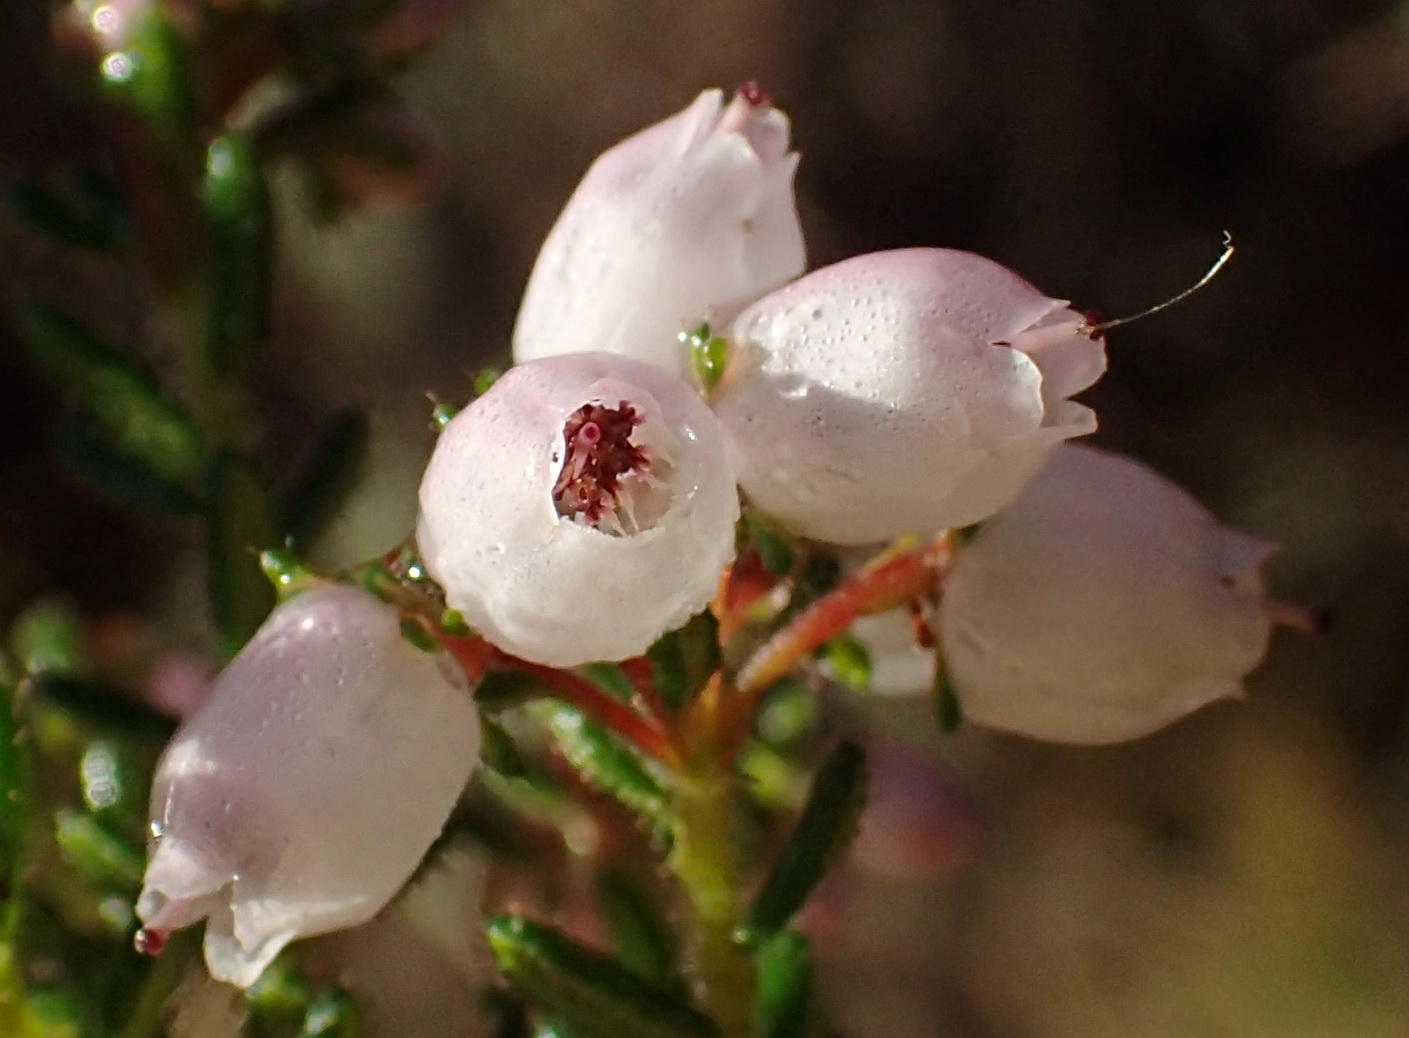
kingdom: Plantae
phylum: Tracheophyta
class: Magnoliopsida
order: Ericales
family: Ericaceae
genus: Erica
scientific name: Erica scabriuscula
